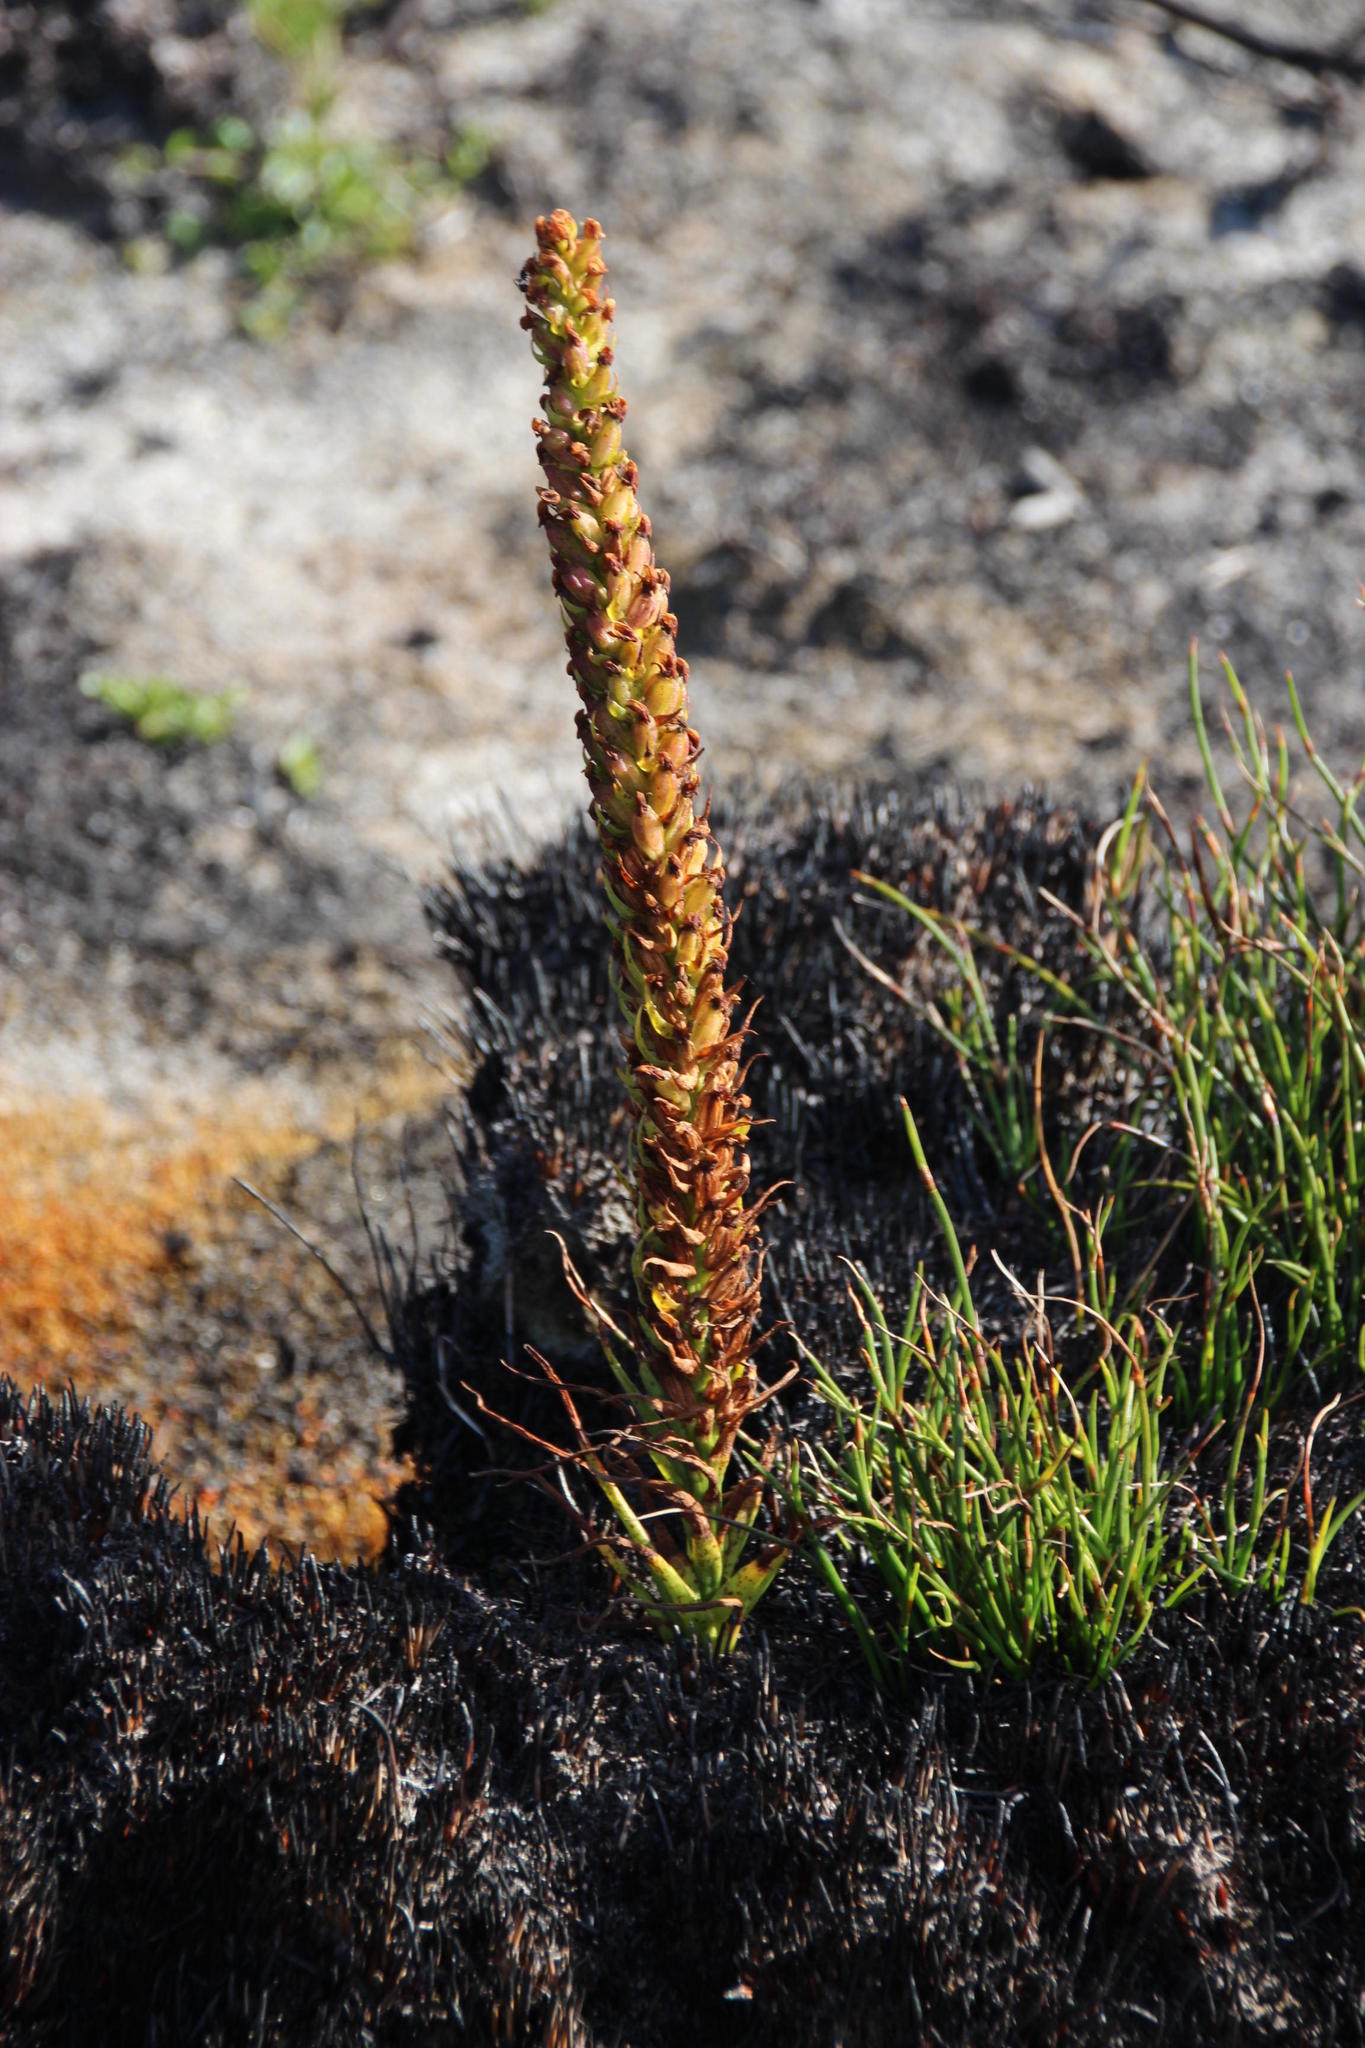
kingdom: Plantae
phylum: Tracheophyta
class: Liliopsida
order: Asparagales
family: Orchidaceae
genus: Disa
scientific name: Disa densiflora
